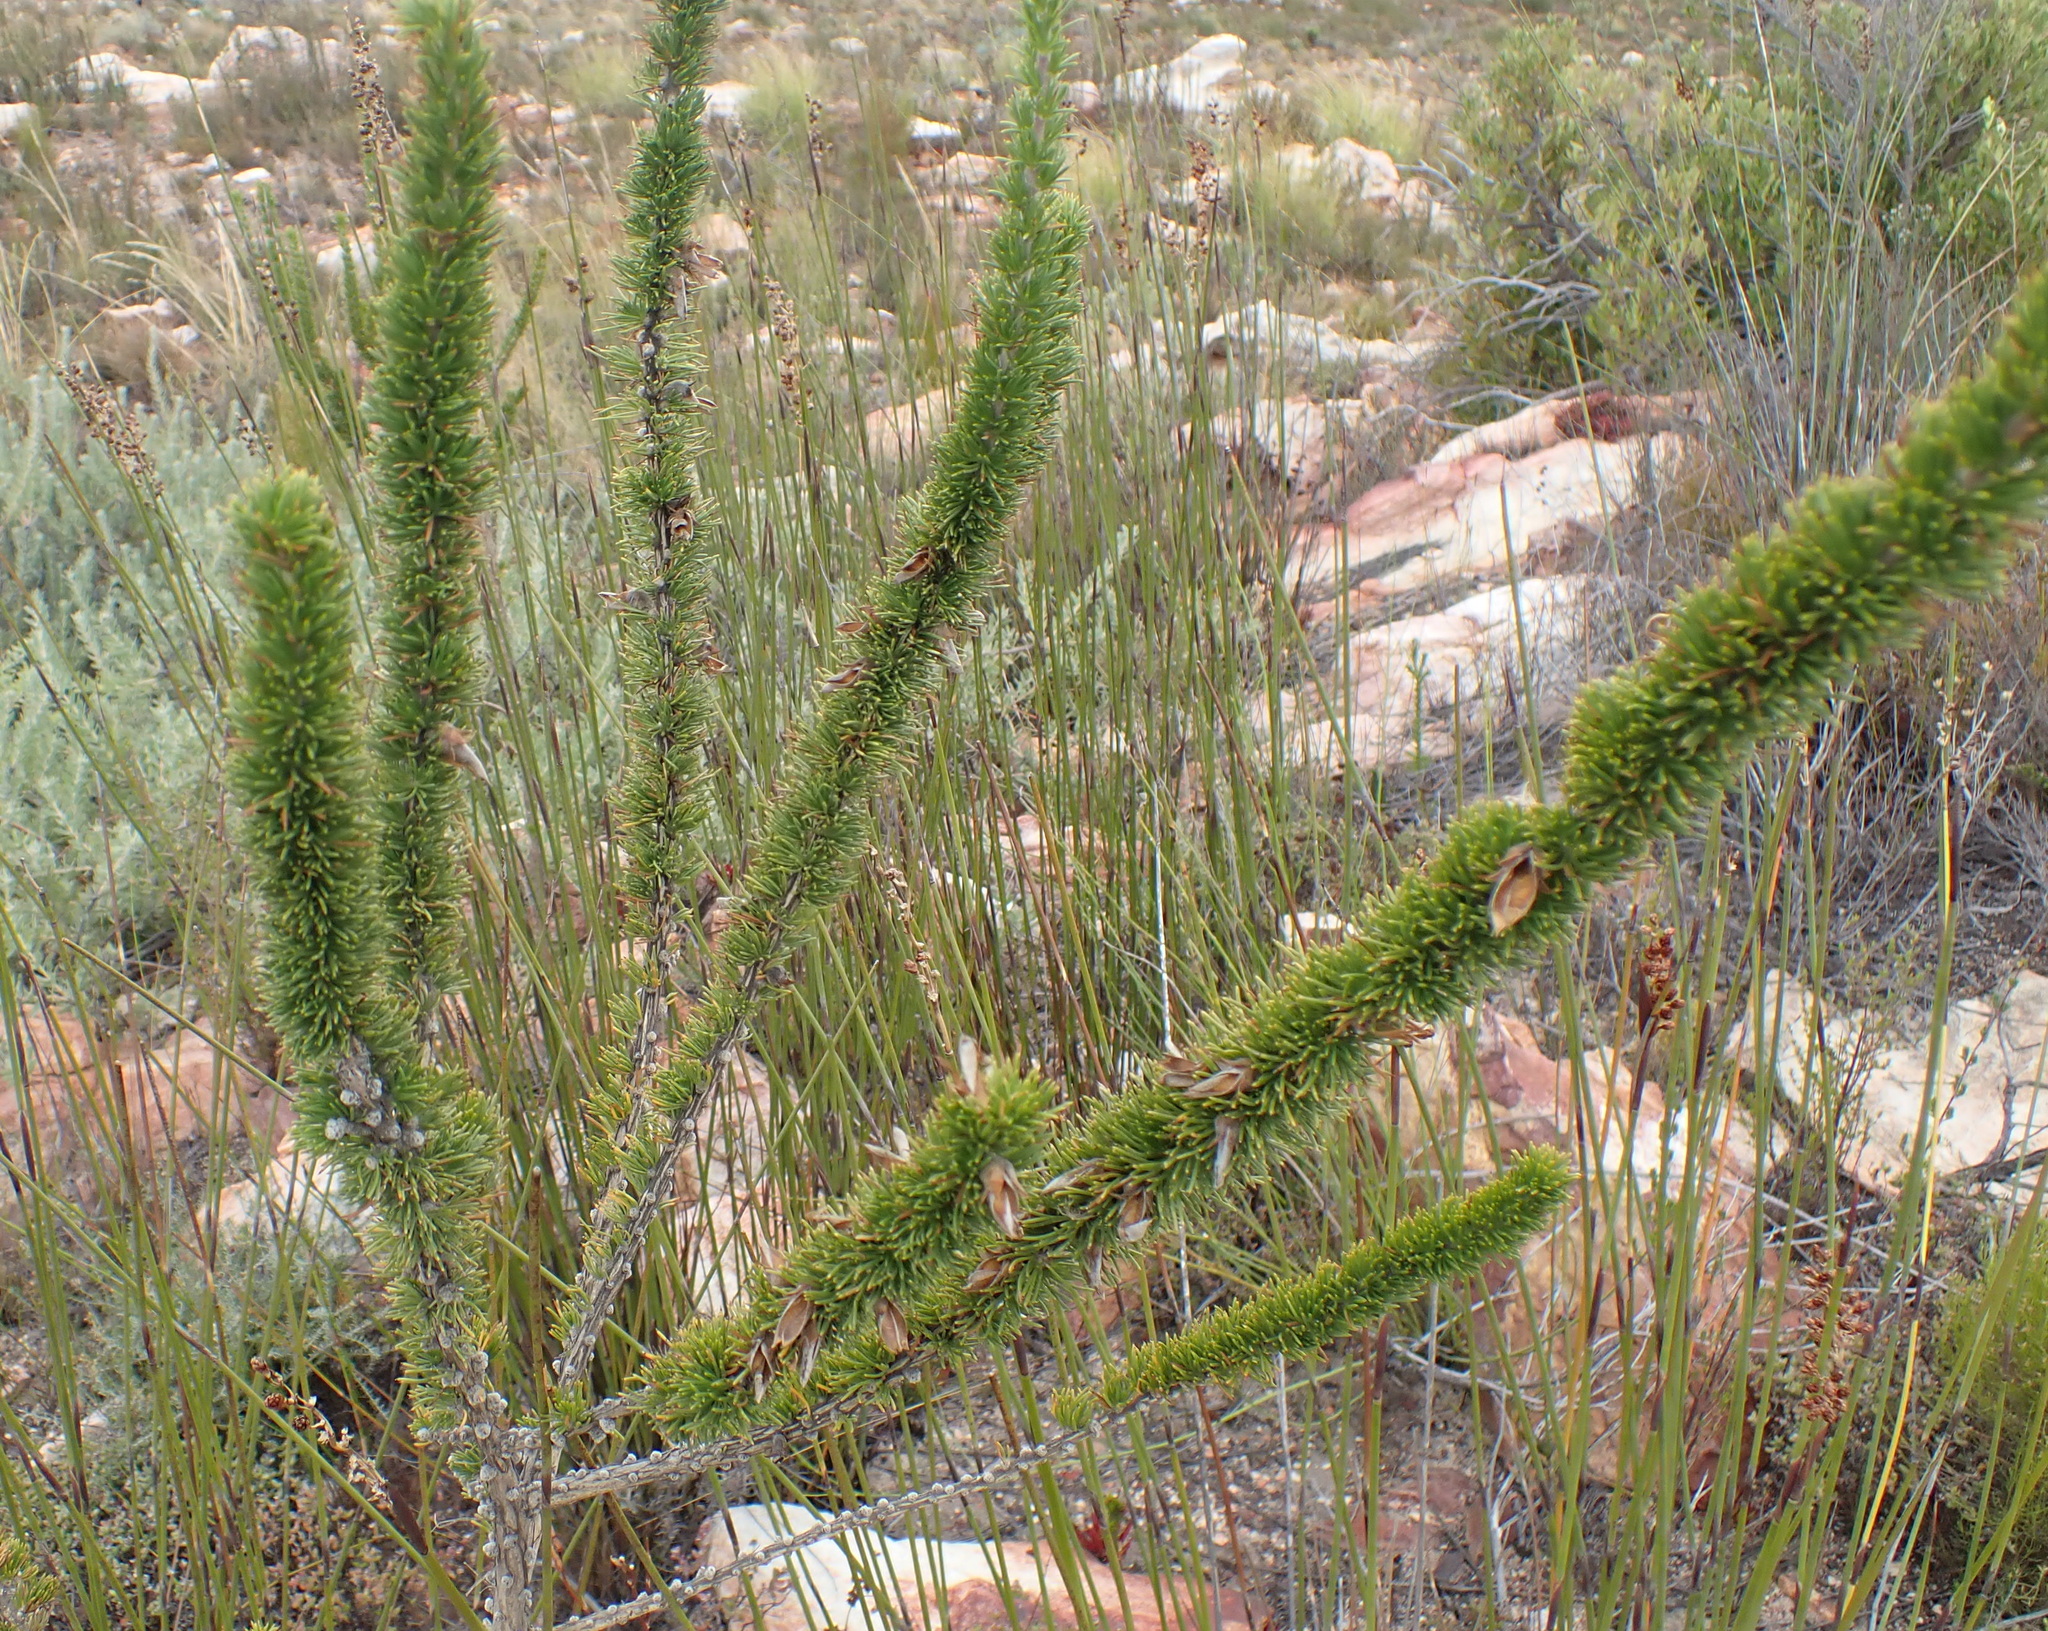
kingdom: Plantae
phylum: Tracheophyta
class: Magnoliopsida
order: Fabales
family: Fabaceae
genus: Aspalathus
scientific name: Aspalathus sceptrumaureum
